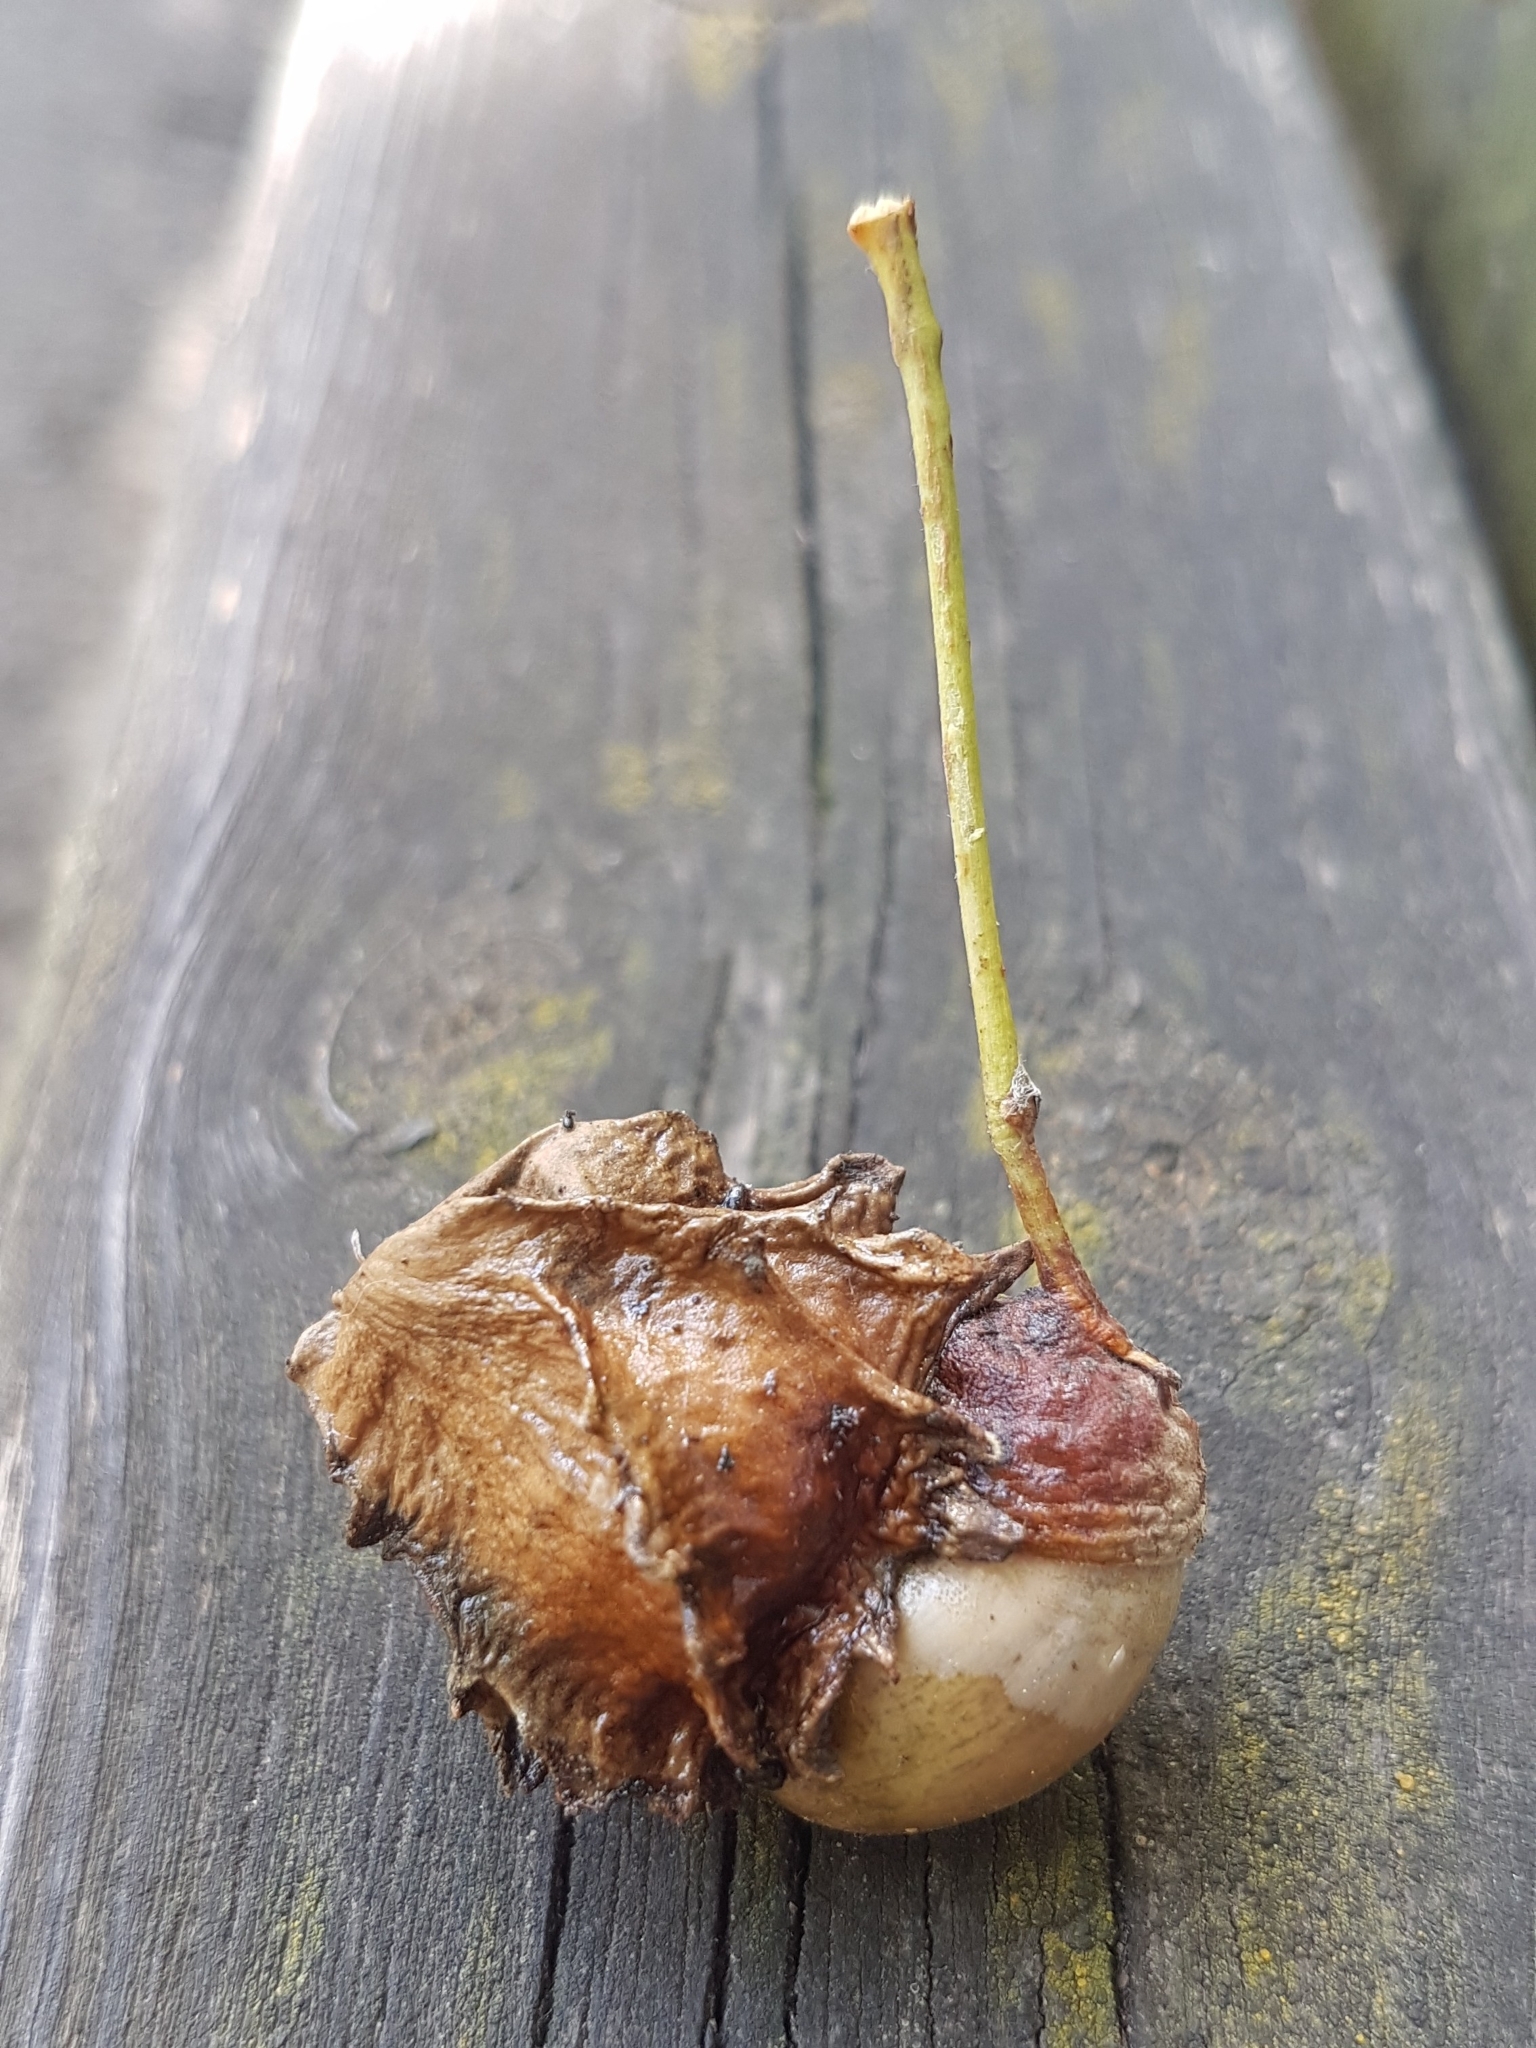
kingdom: Animalia
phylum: Arthropoda
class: Insecta
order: Hymenoptera
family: Cynipidae
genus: Andricus
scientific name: Andricus quercuscalicis
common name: Knopper gall
